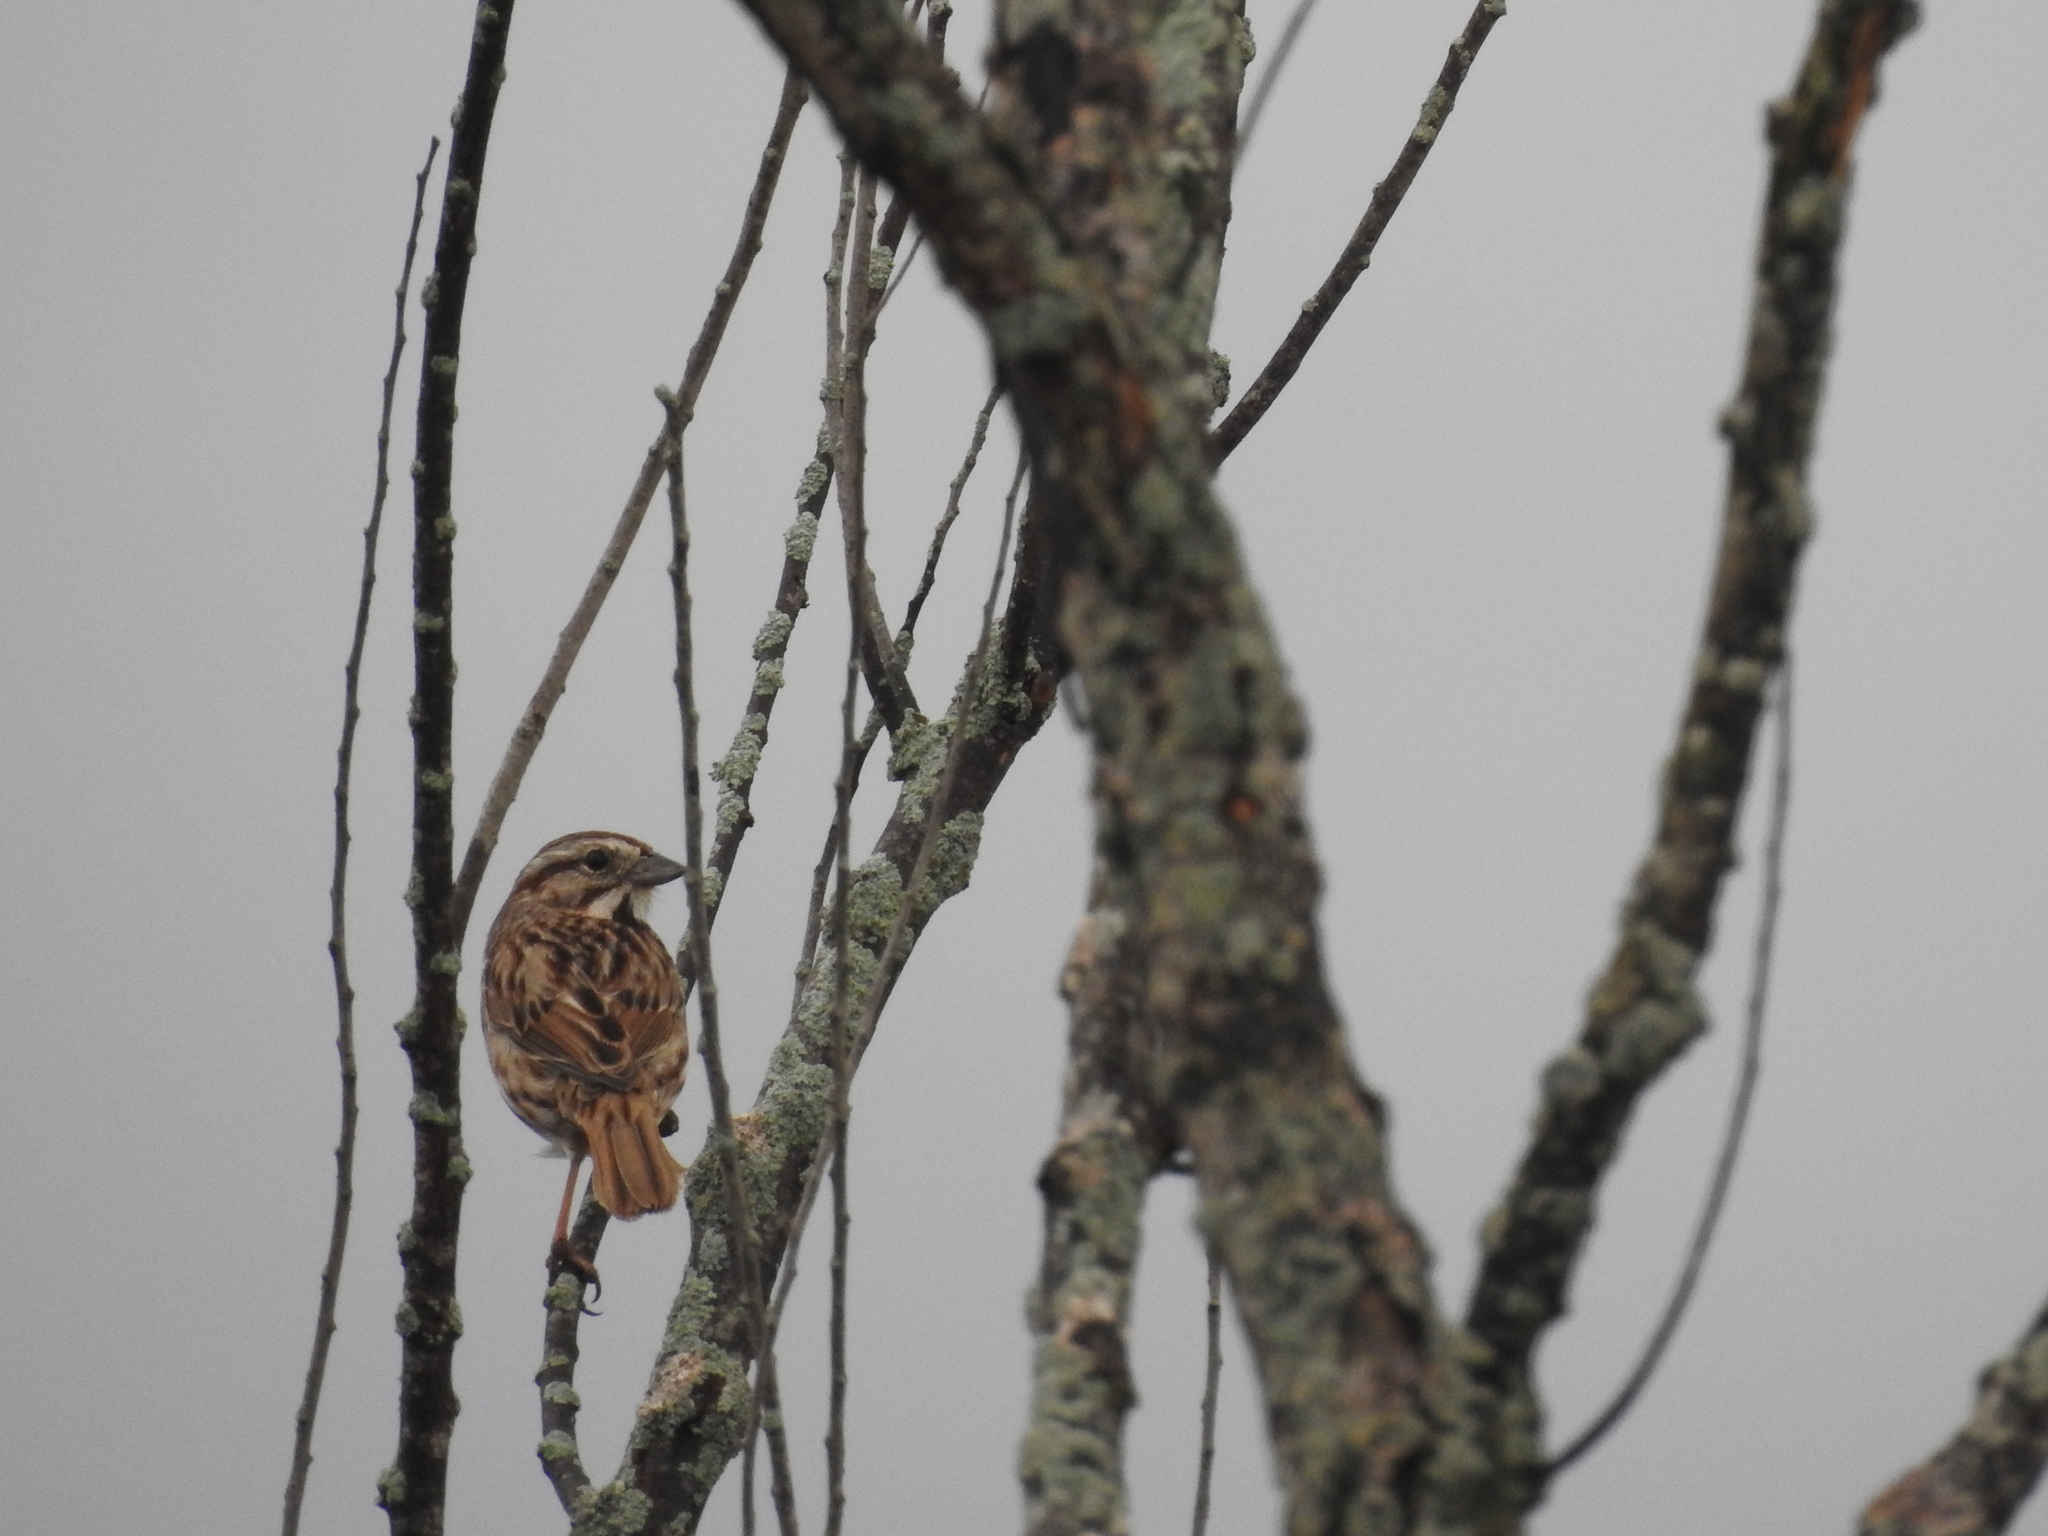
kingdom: Animalia
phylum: Chordata
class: Aves
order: Passeriformes
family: Passerellidae
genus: Melospiza
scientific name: Melospiza melodia
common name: Song sparrow
